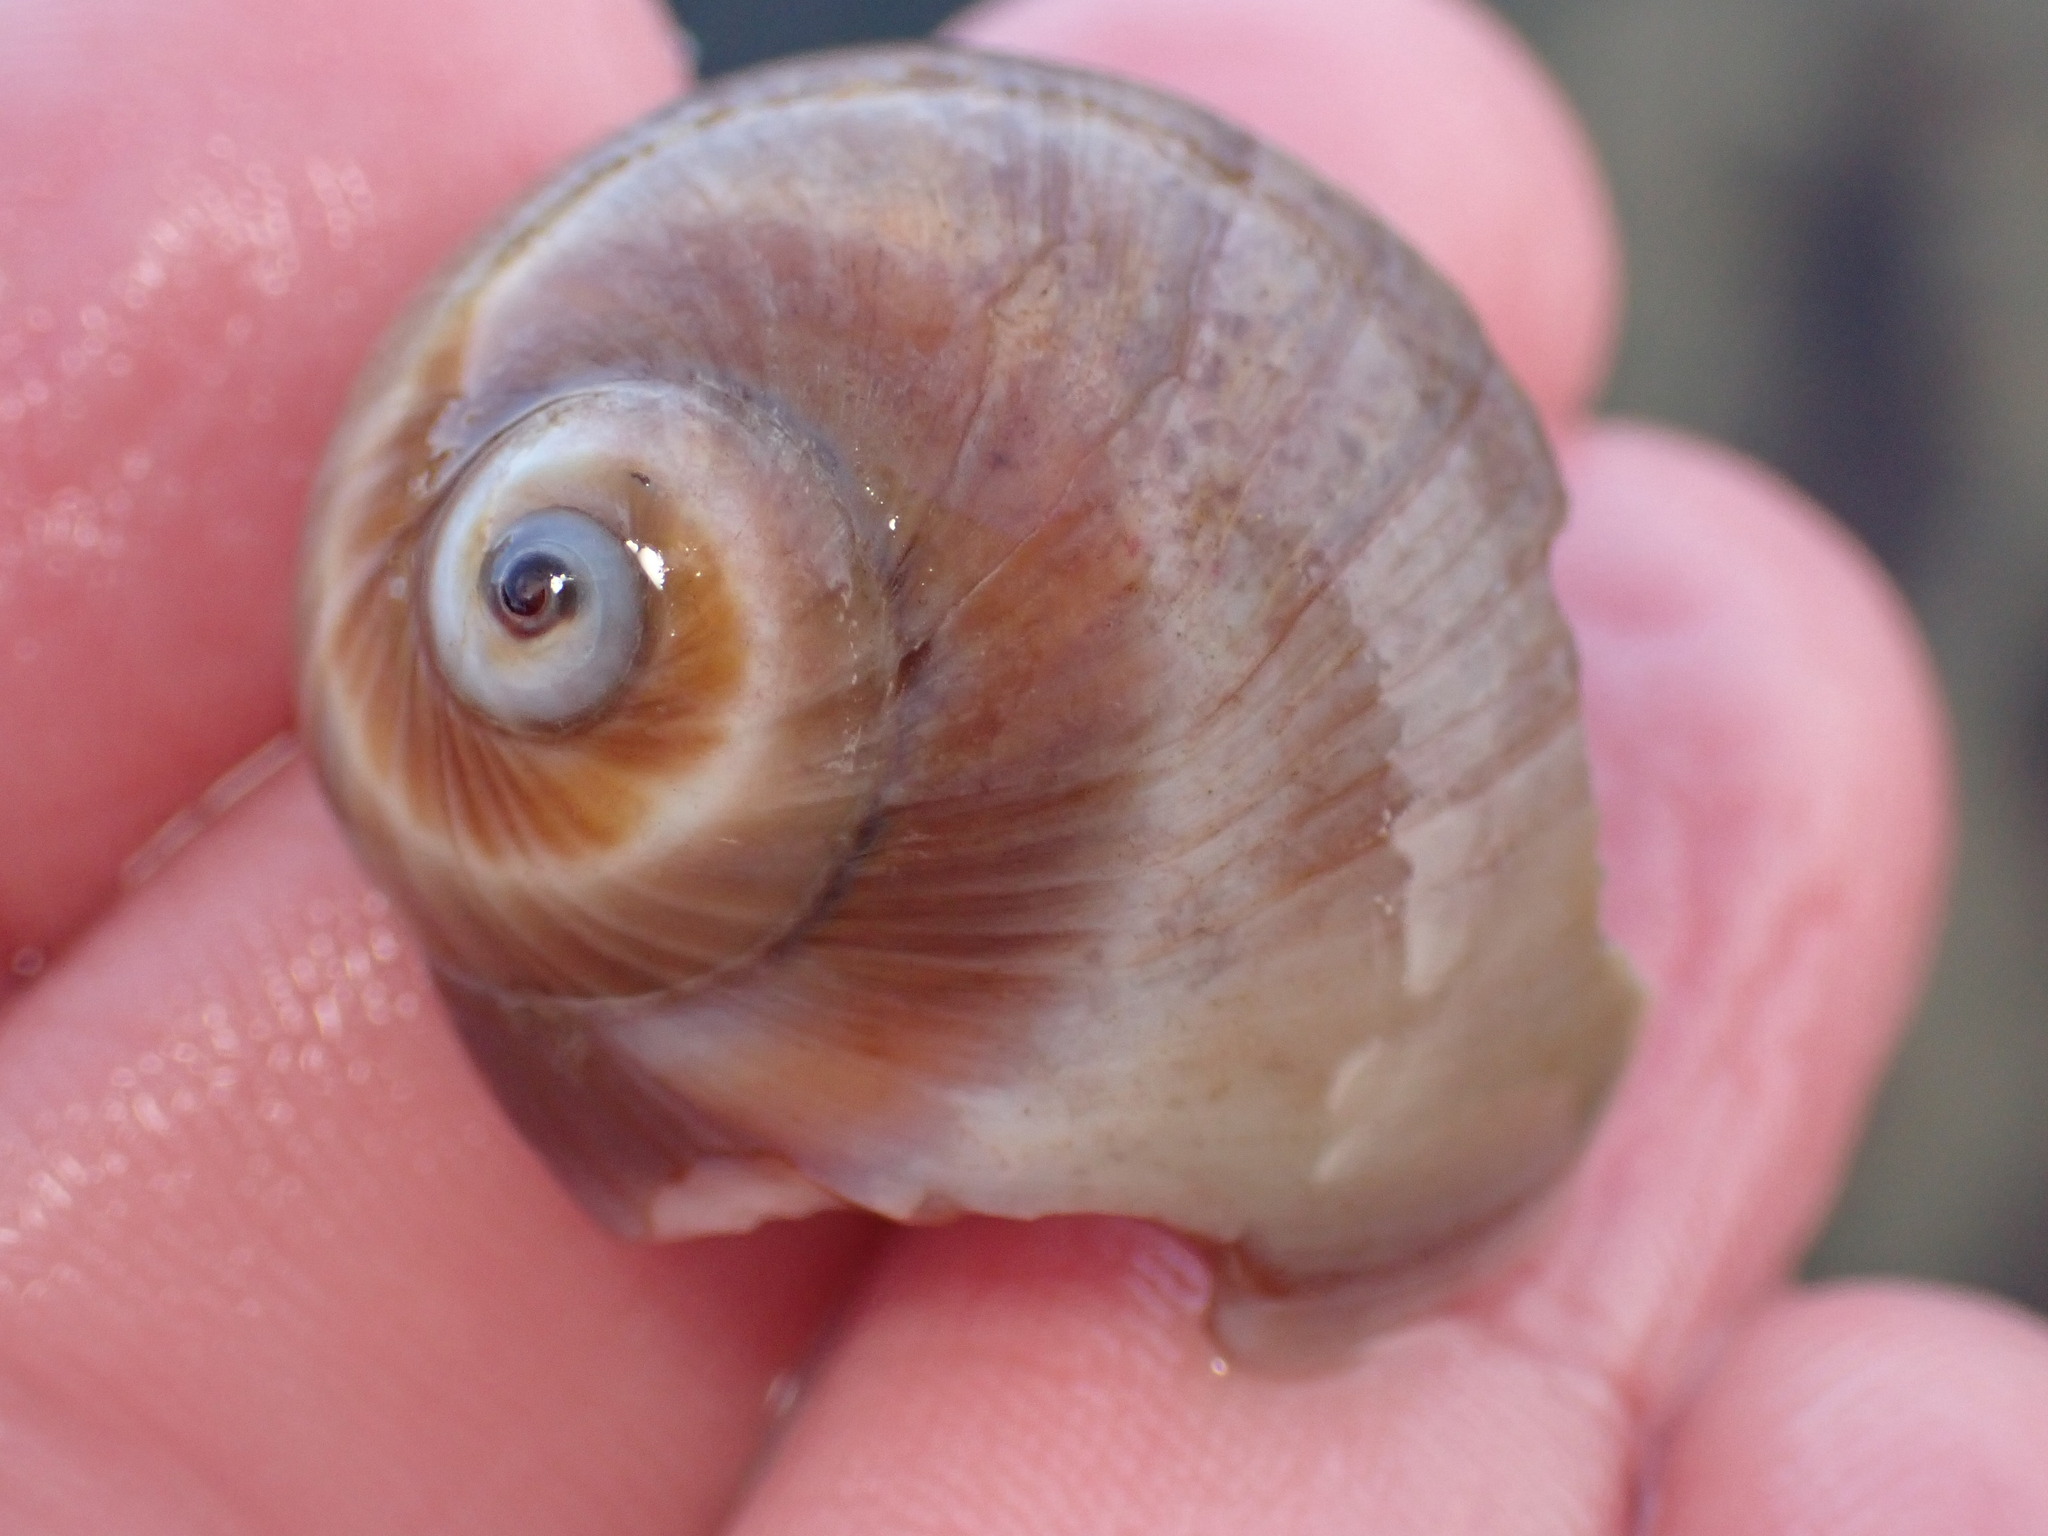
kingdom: Animalia
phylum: Mollusca
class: Gastropoda
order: Littorinimorpha
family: Naticidae
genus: Glossaulax
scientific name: Glossaulax reclusiana
